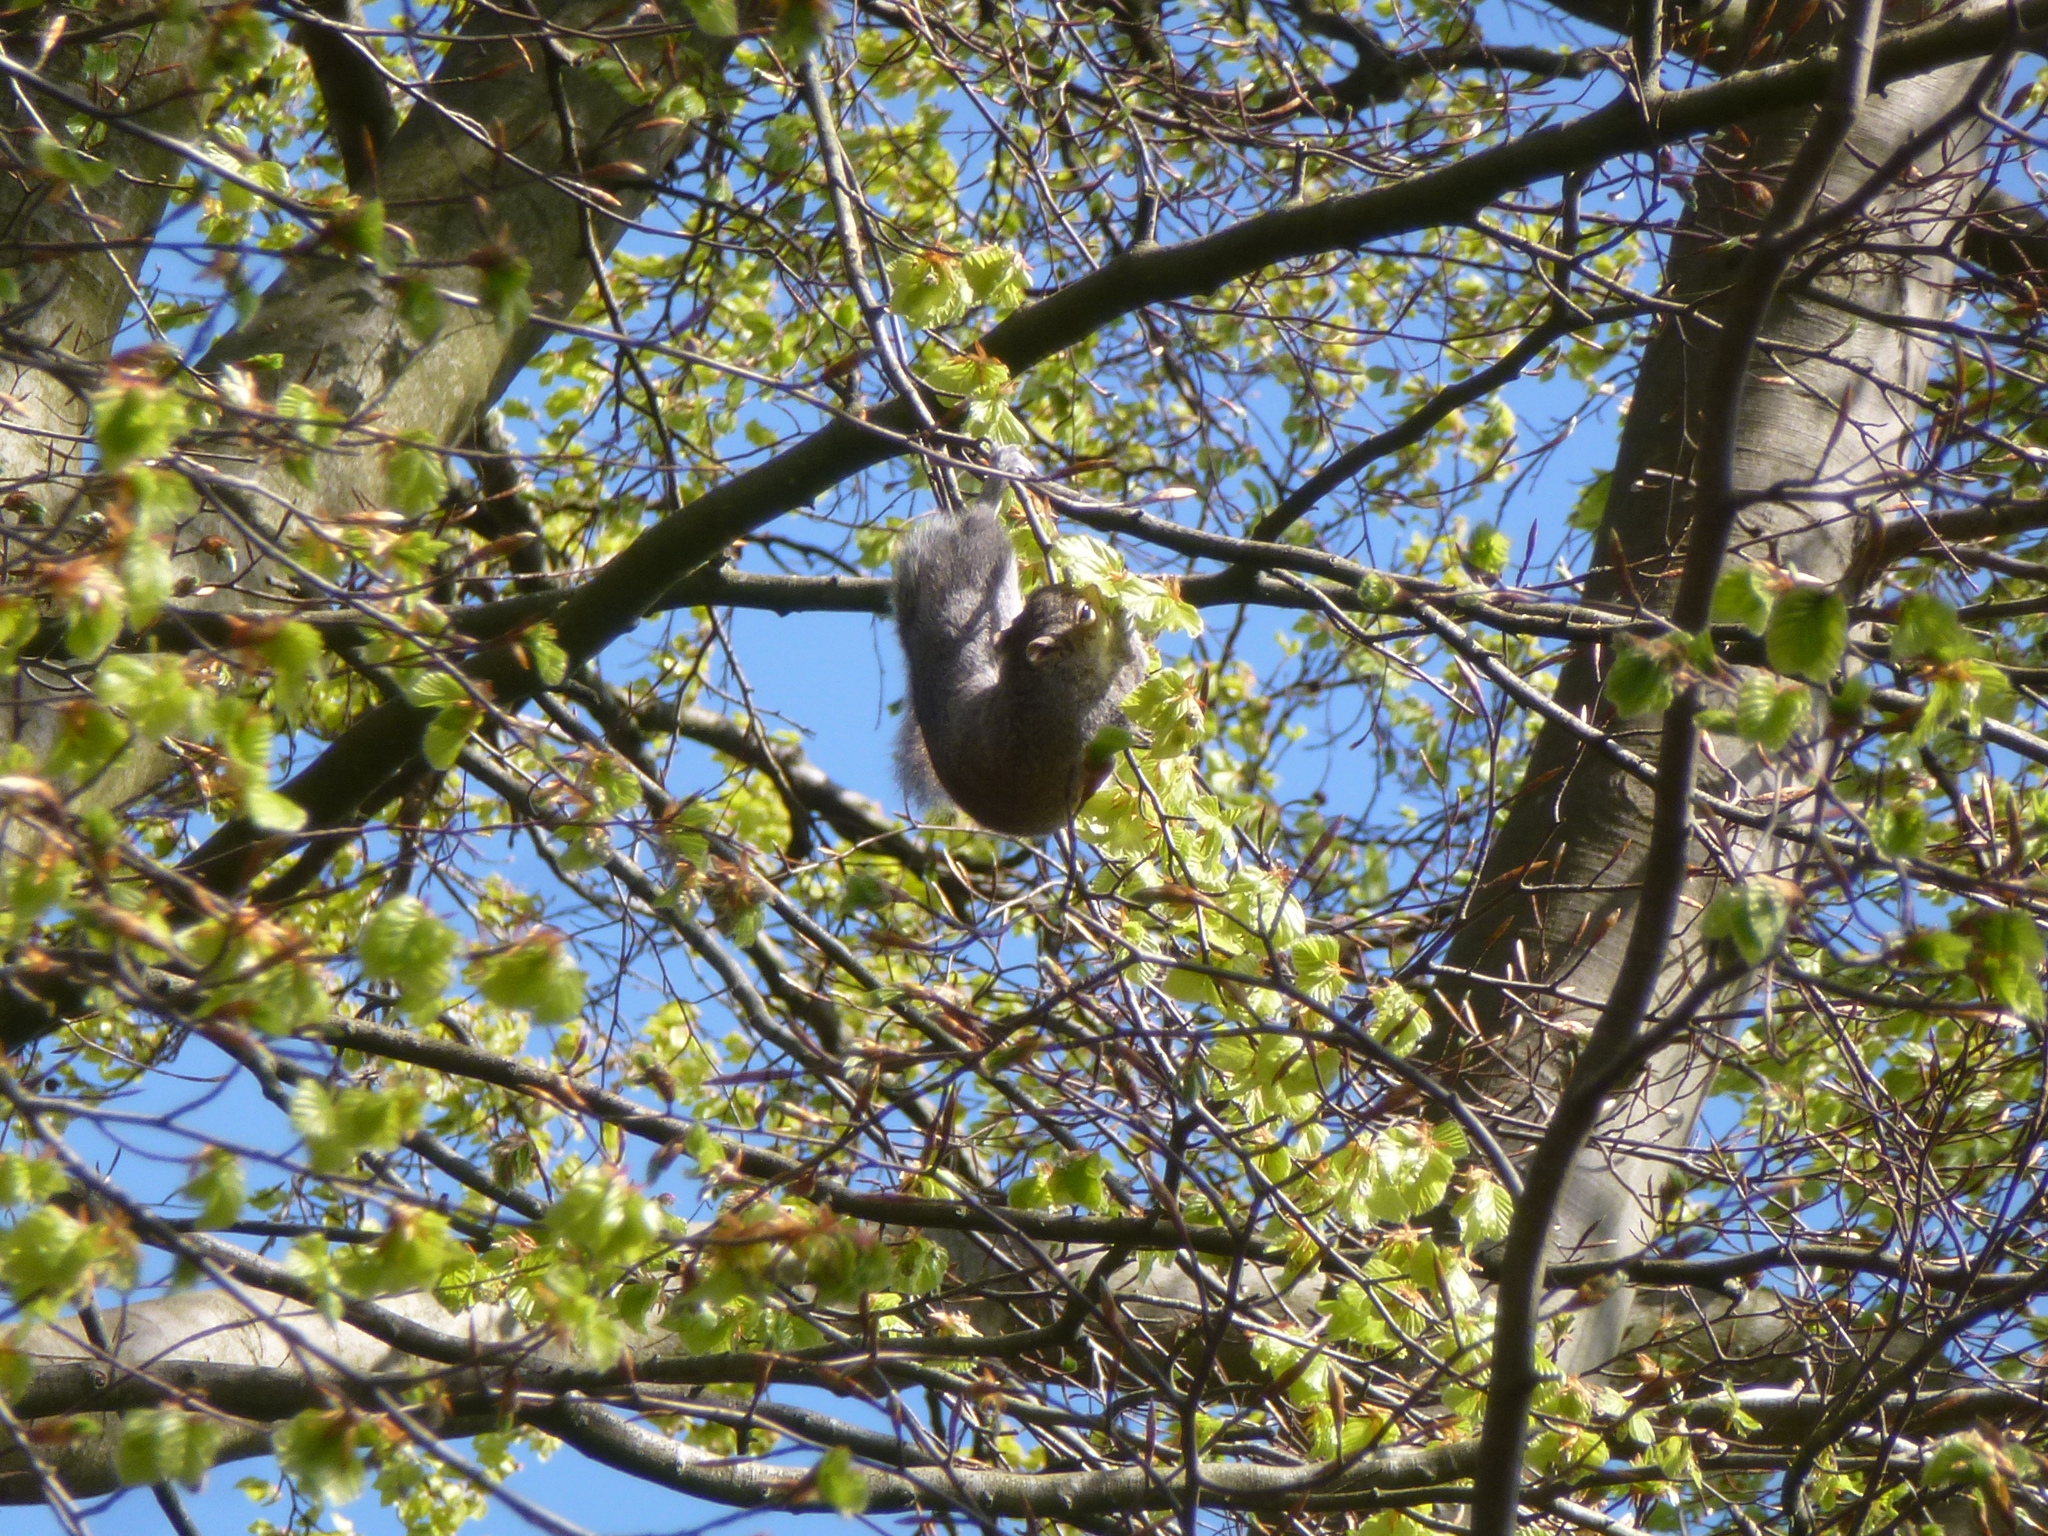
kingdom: Animalia
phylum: Chordata
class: Mammalia
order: Rodentia
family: Sciuridae
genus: Sciurus
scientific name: Sciurus carolinensis
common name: Eastern gray squirrel
